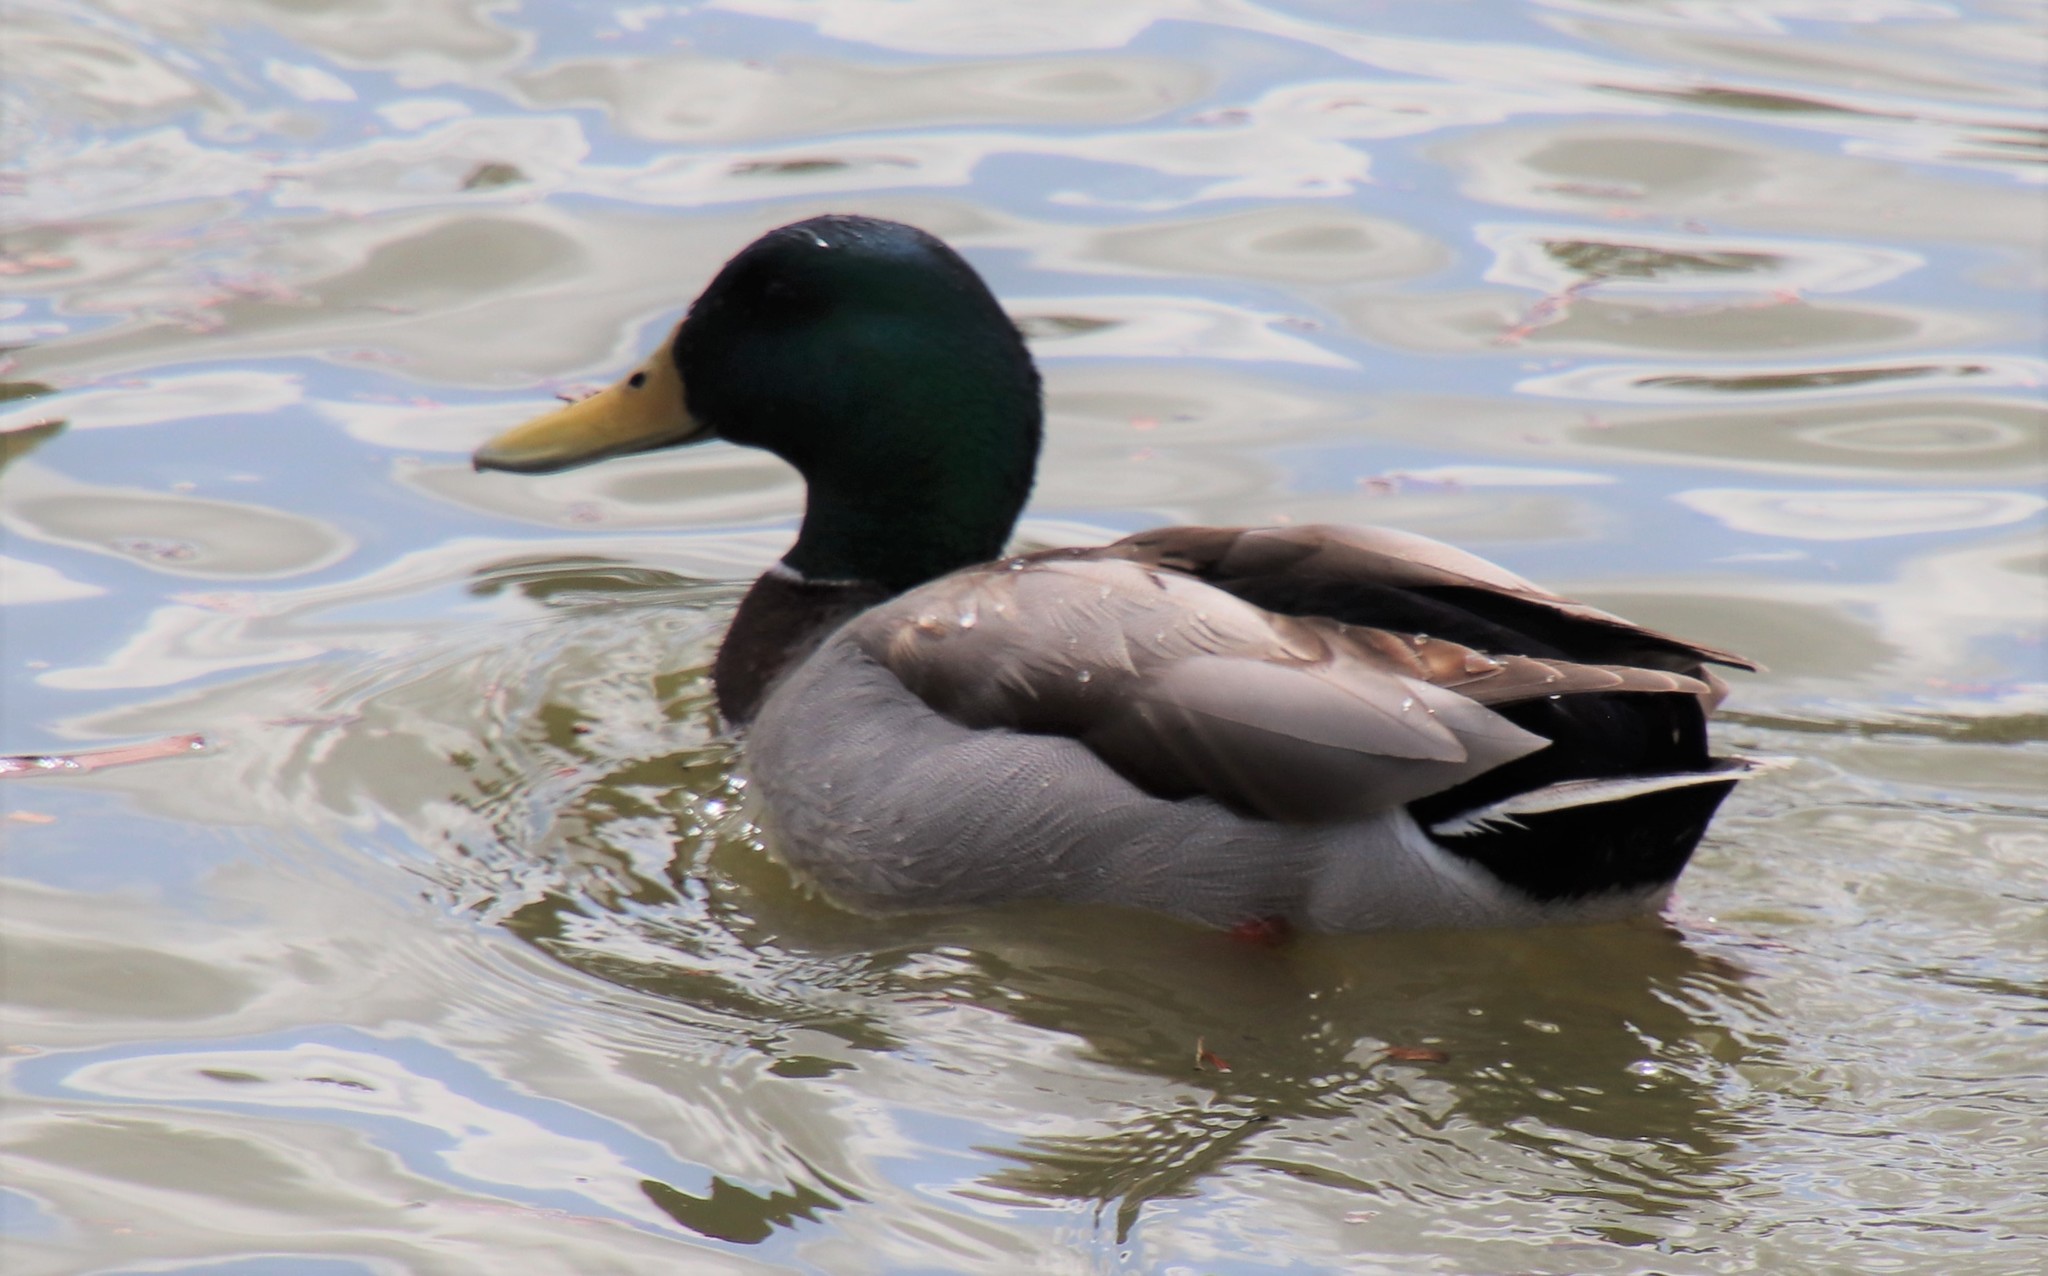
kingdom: Animalia
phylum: Chordata
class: Aves
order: Anseriformes
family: Anatidae
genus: Anas
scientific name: Anas platyrhynchos
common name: Mallard
